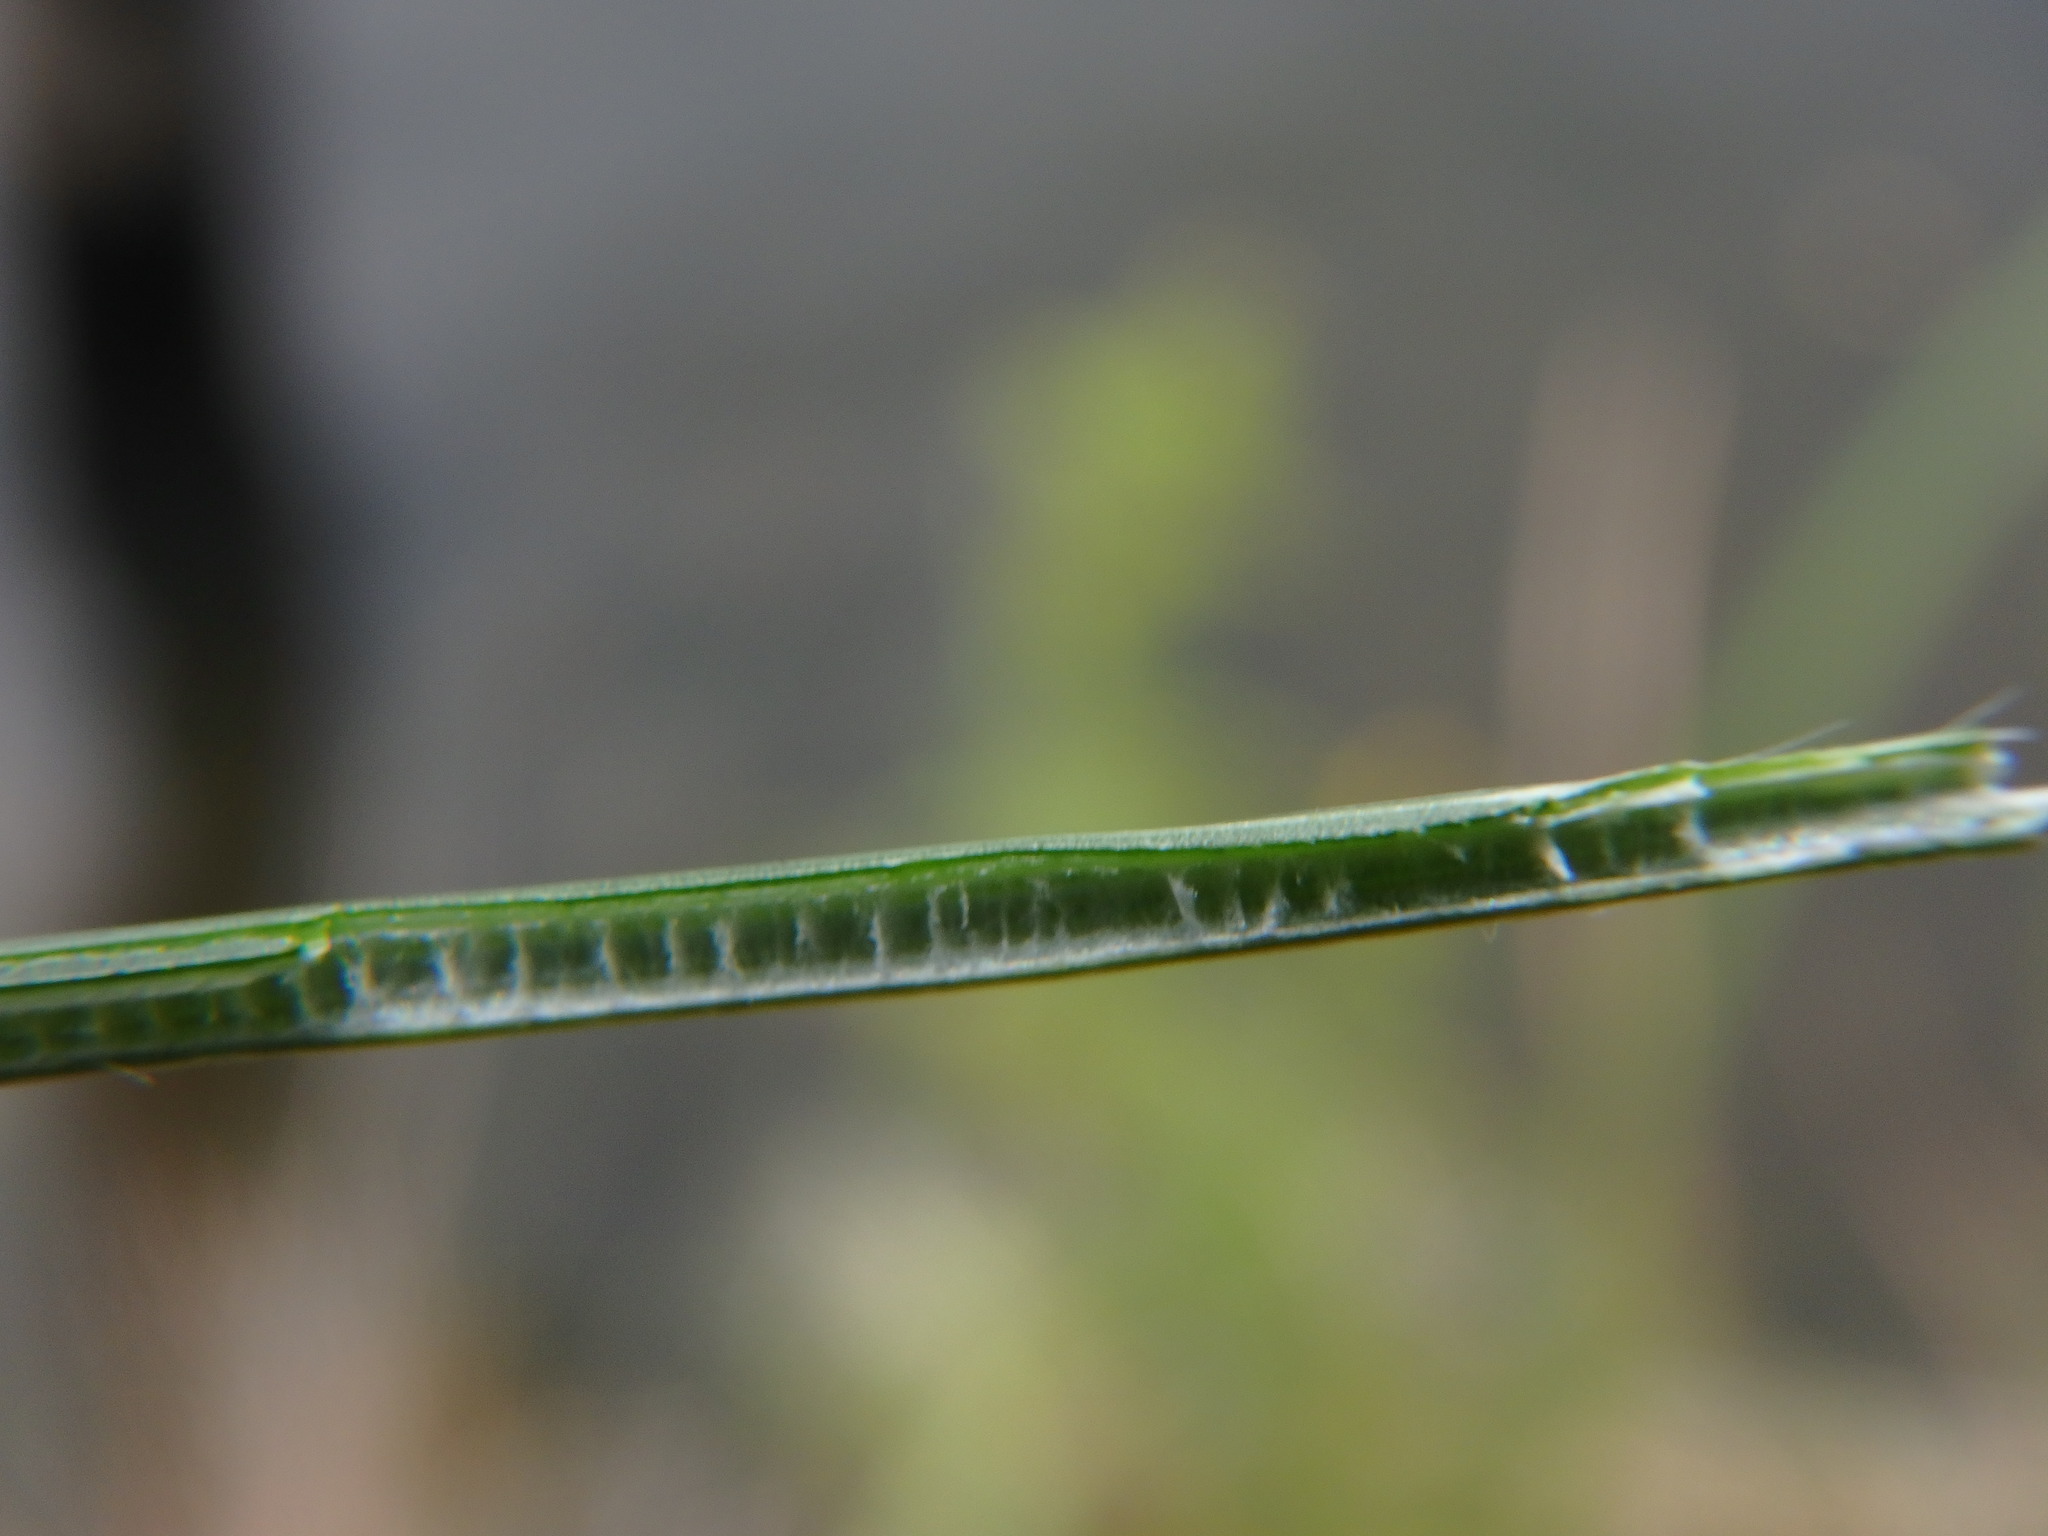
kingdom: Plantae
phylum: Tracheophyta
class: Liliopsida
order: Poales
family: Juncaceae
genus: Juncus
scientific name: Juncus inflexus
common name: Hard rush
